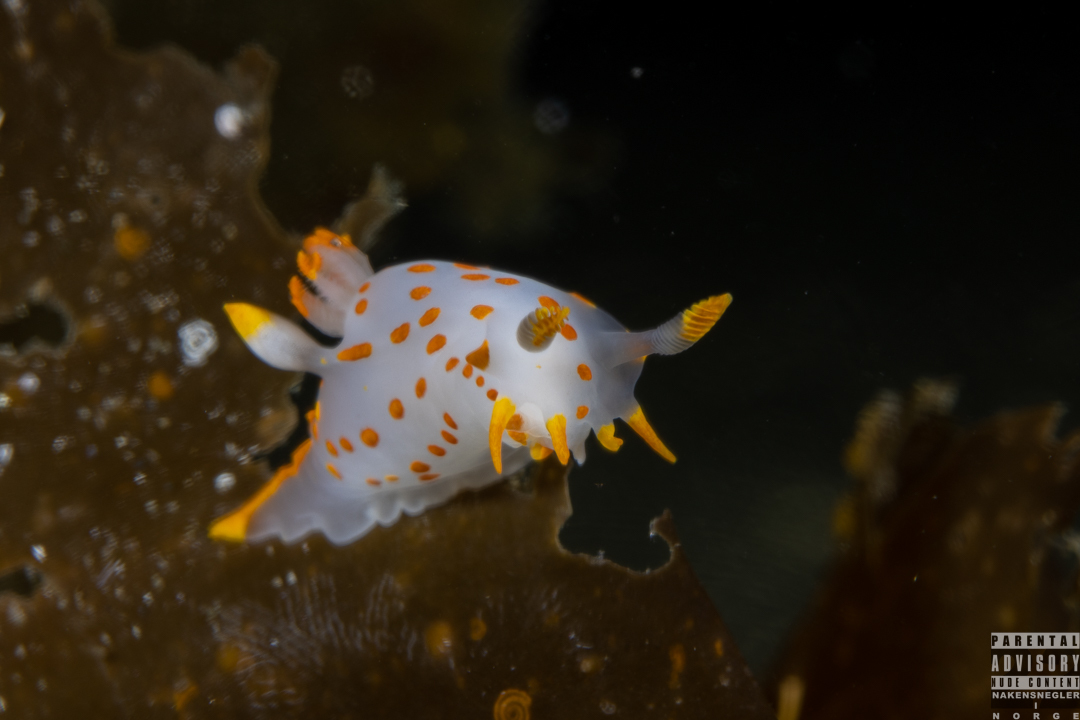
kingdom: Animalia
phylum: Mollusca
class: Gastropoda
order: Nudibranchia
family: Polyceridae
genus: Polycera
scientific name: Polycera quadrilineata
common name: Four-striped polycera
